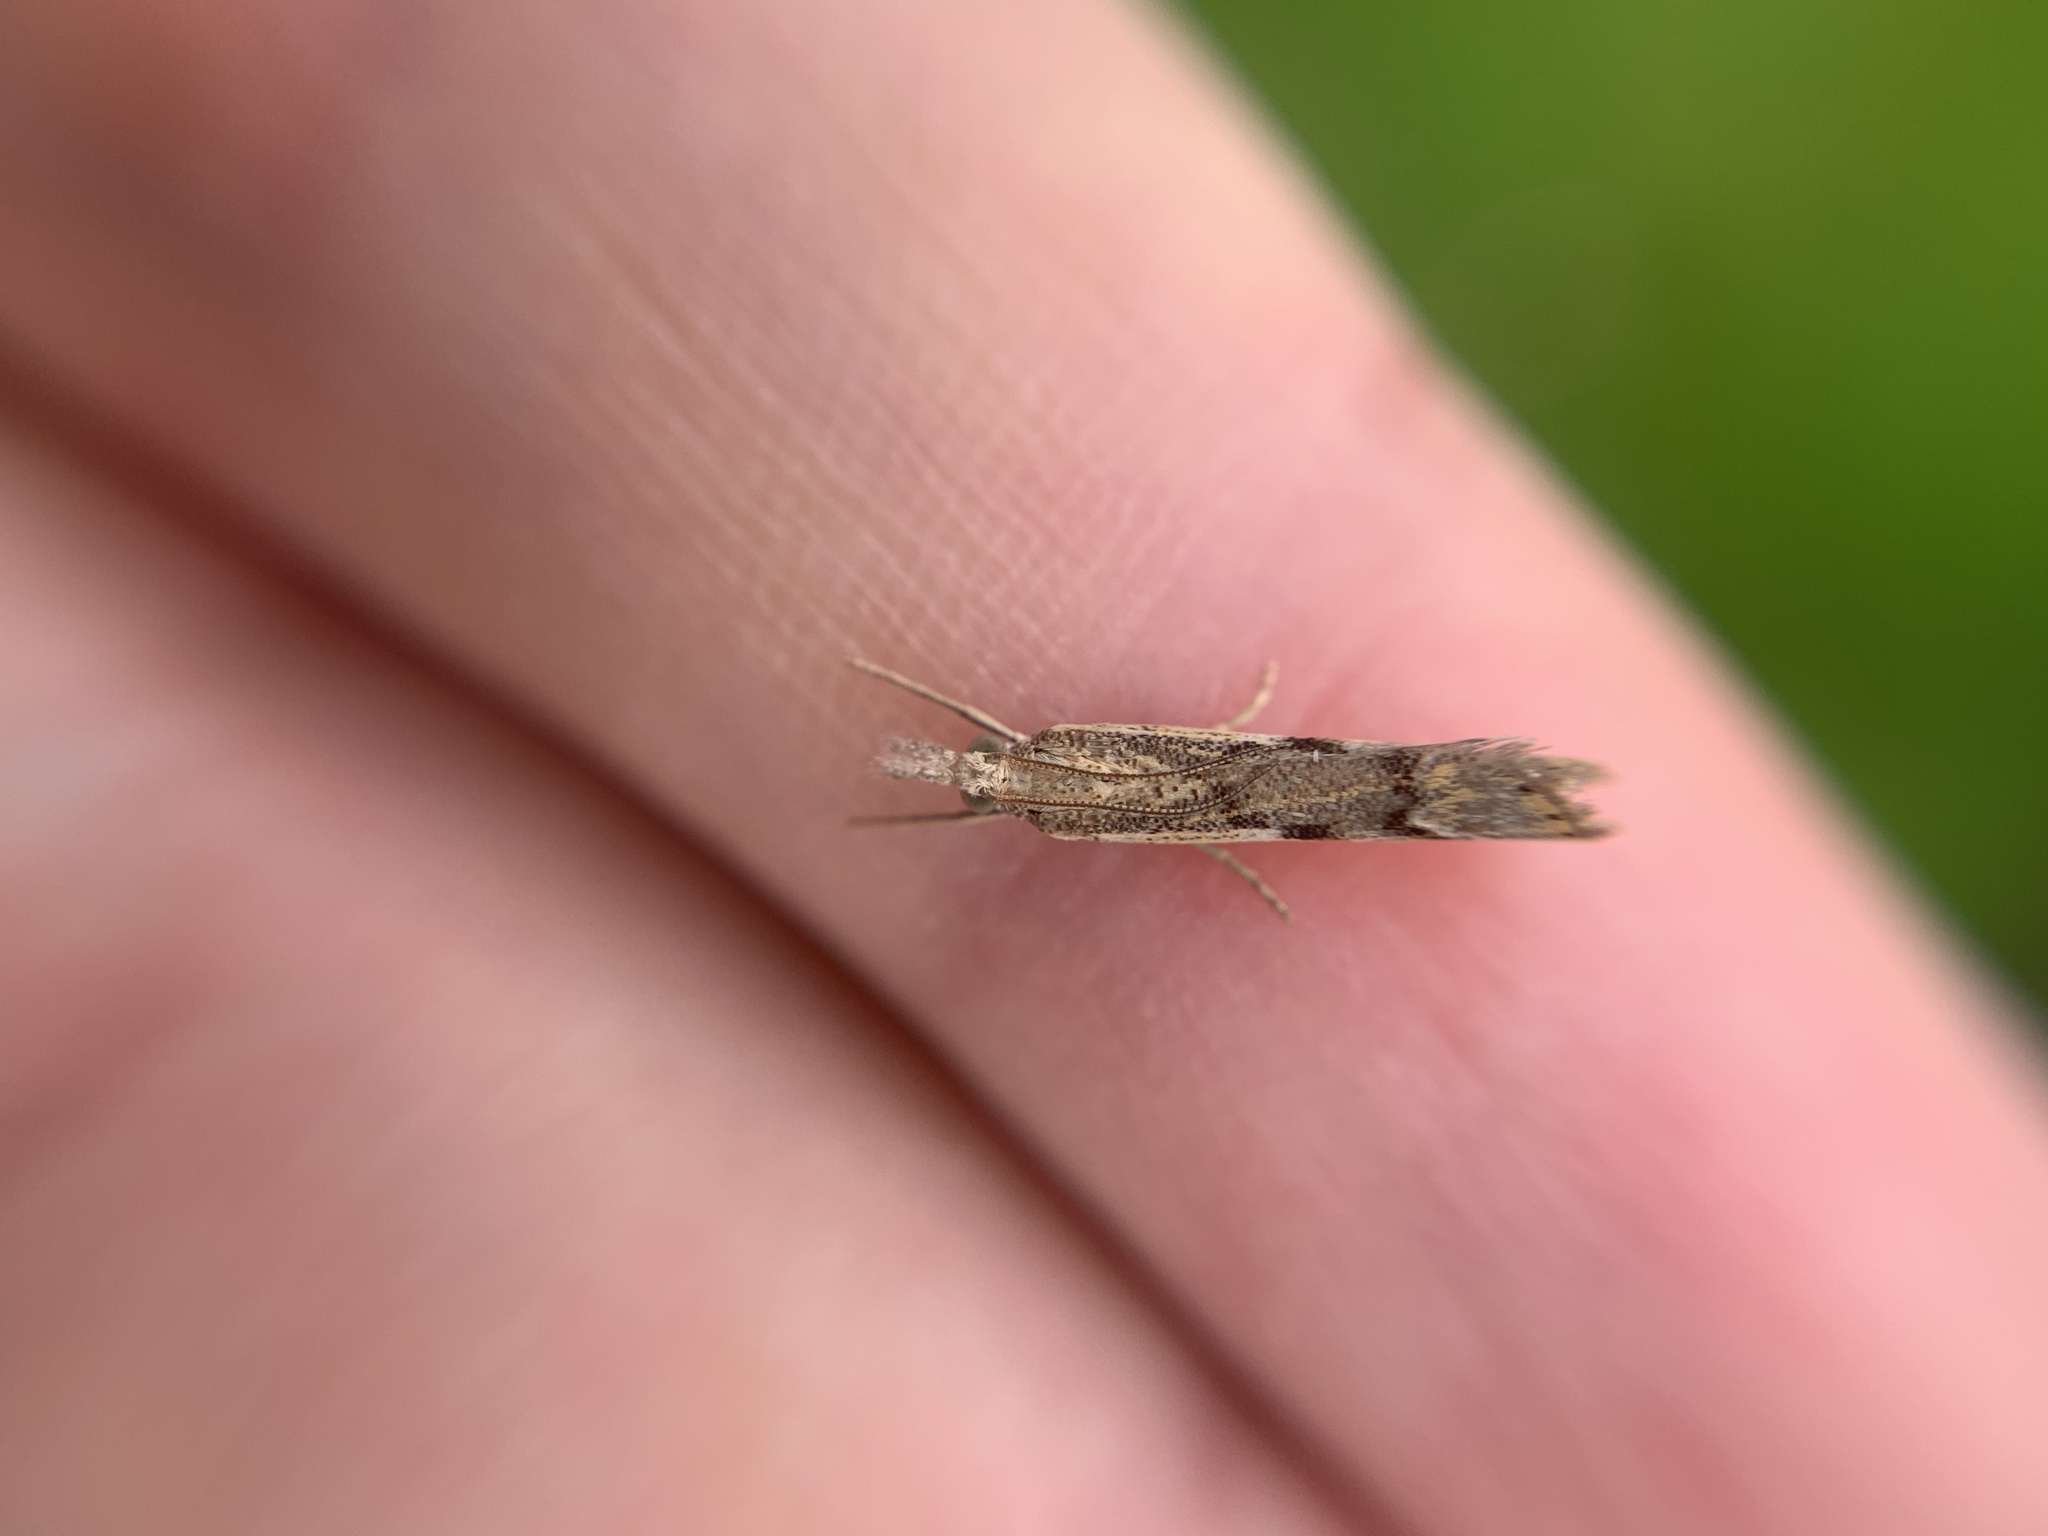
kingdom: Animalia
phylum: Arthropoda
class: Insecta
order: Lepidoptera
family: Crambidae
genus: Agriphila
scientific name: Agriphila geniculea
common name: Elbow-stripe grass-veneer
